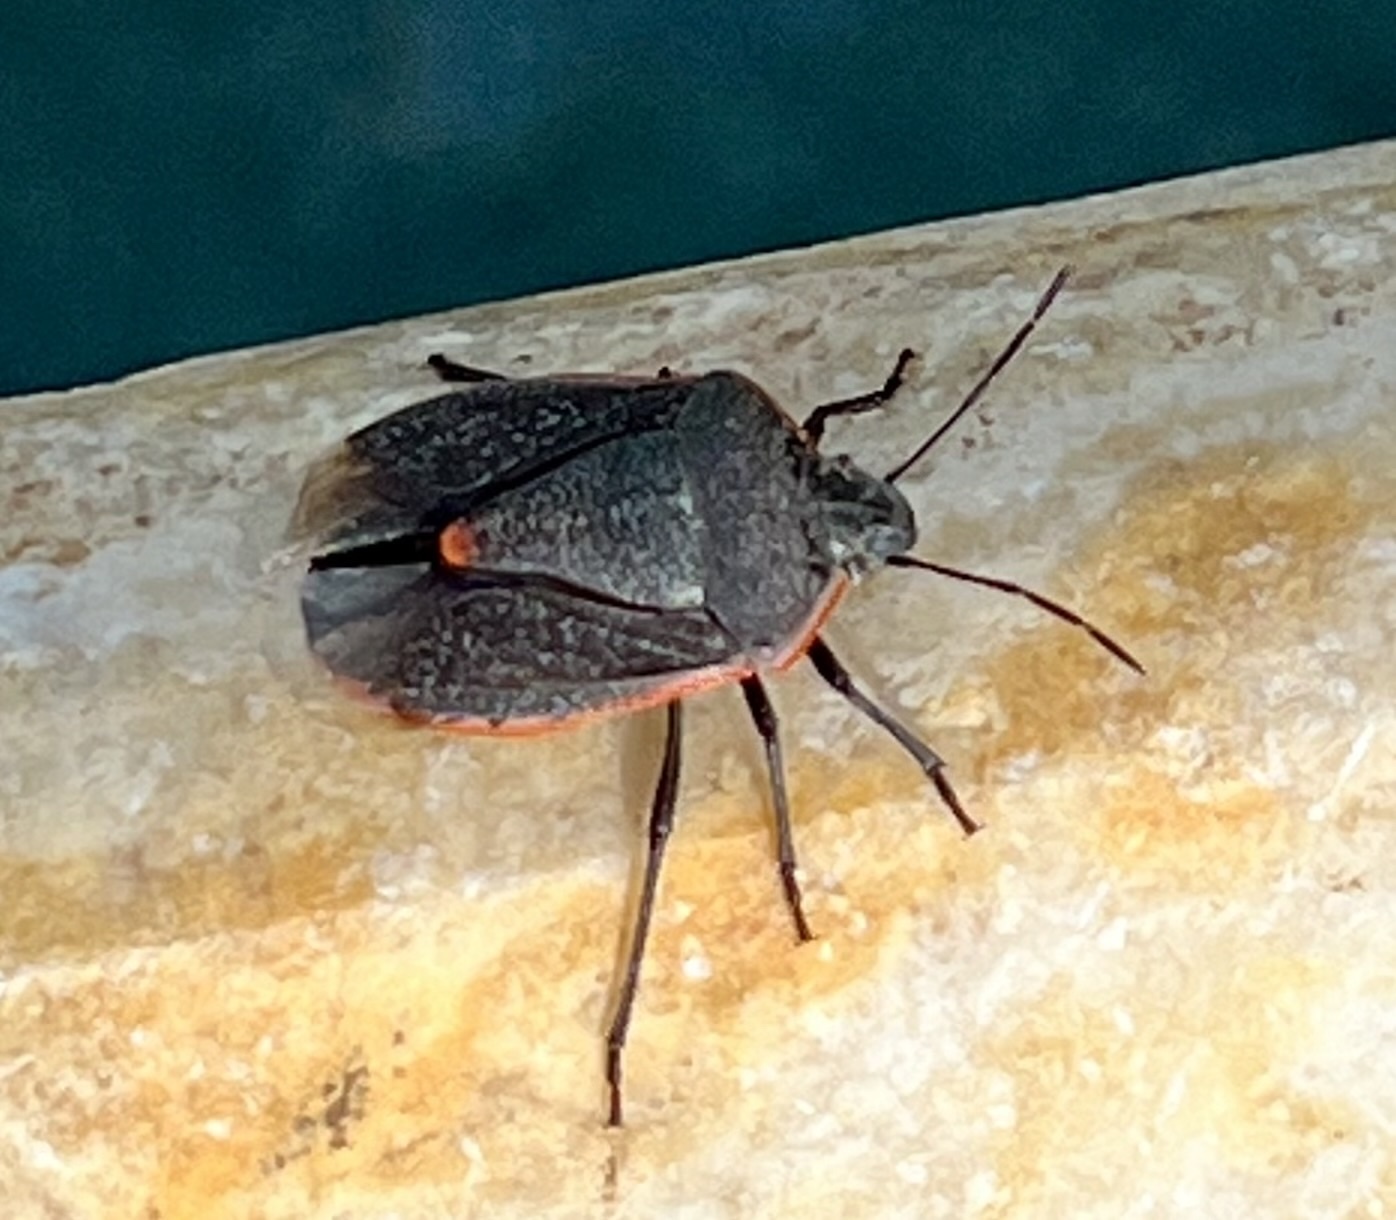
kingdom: Animalia
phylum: Arthropoda
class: Insecta
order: Hemiptera
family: Pentatomidae
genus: Chlorochroa
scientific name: Chlorochroa ligata
